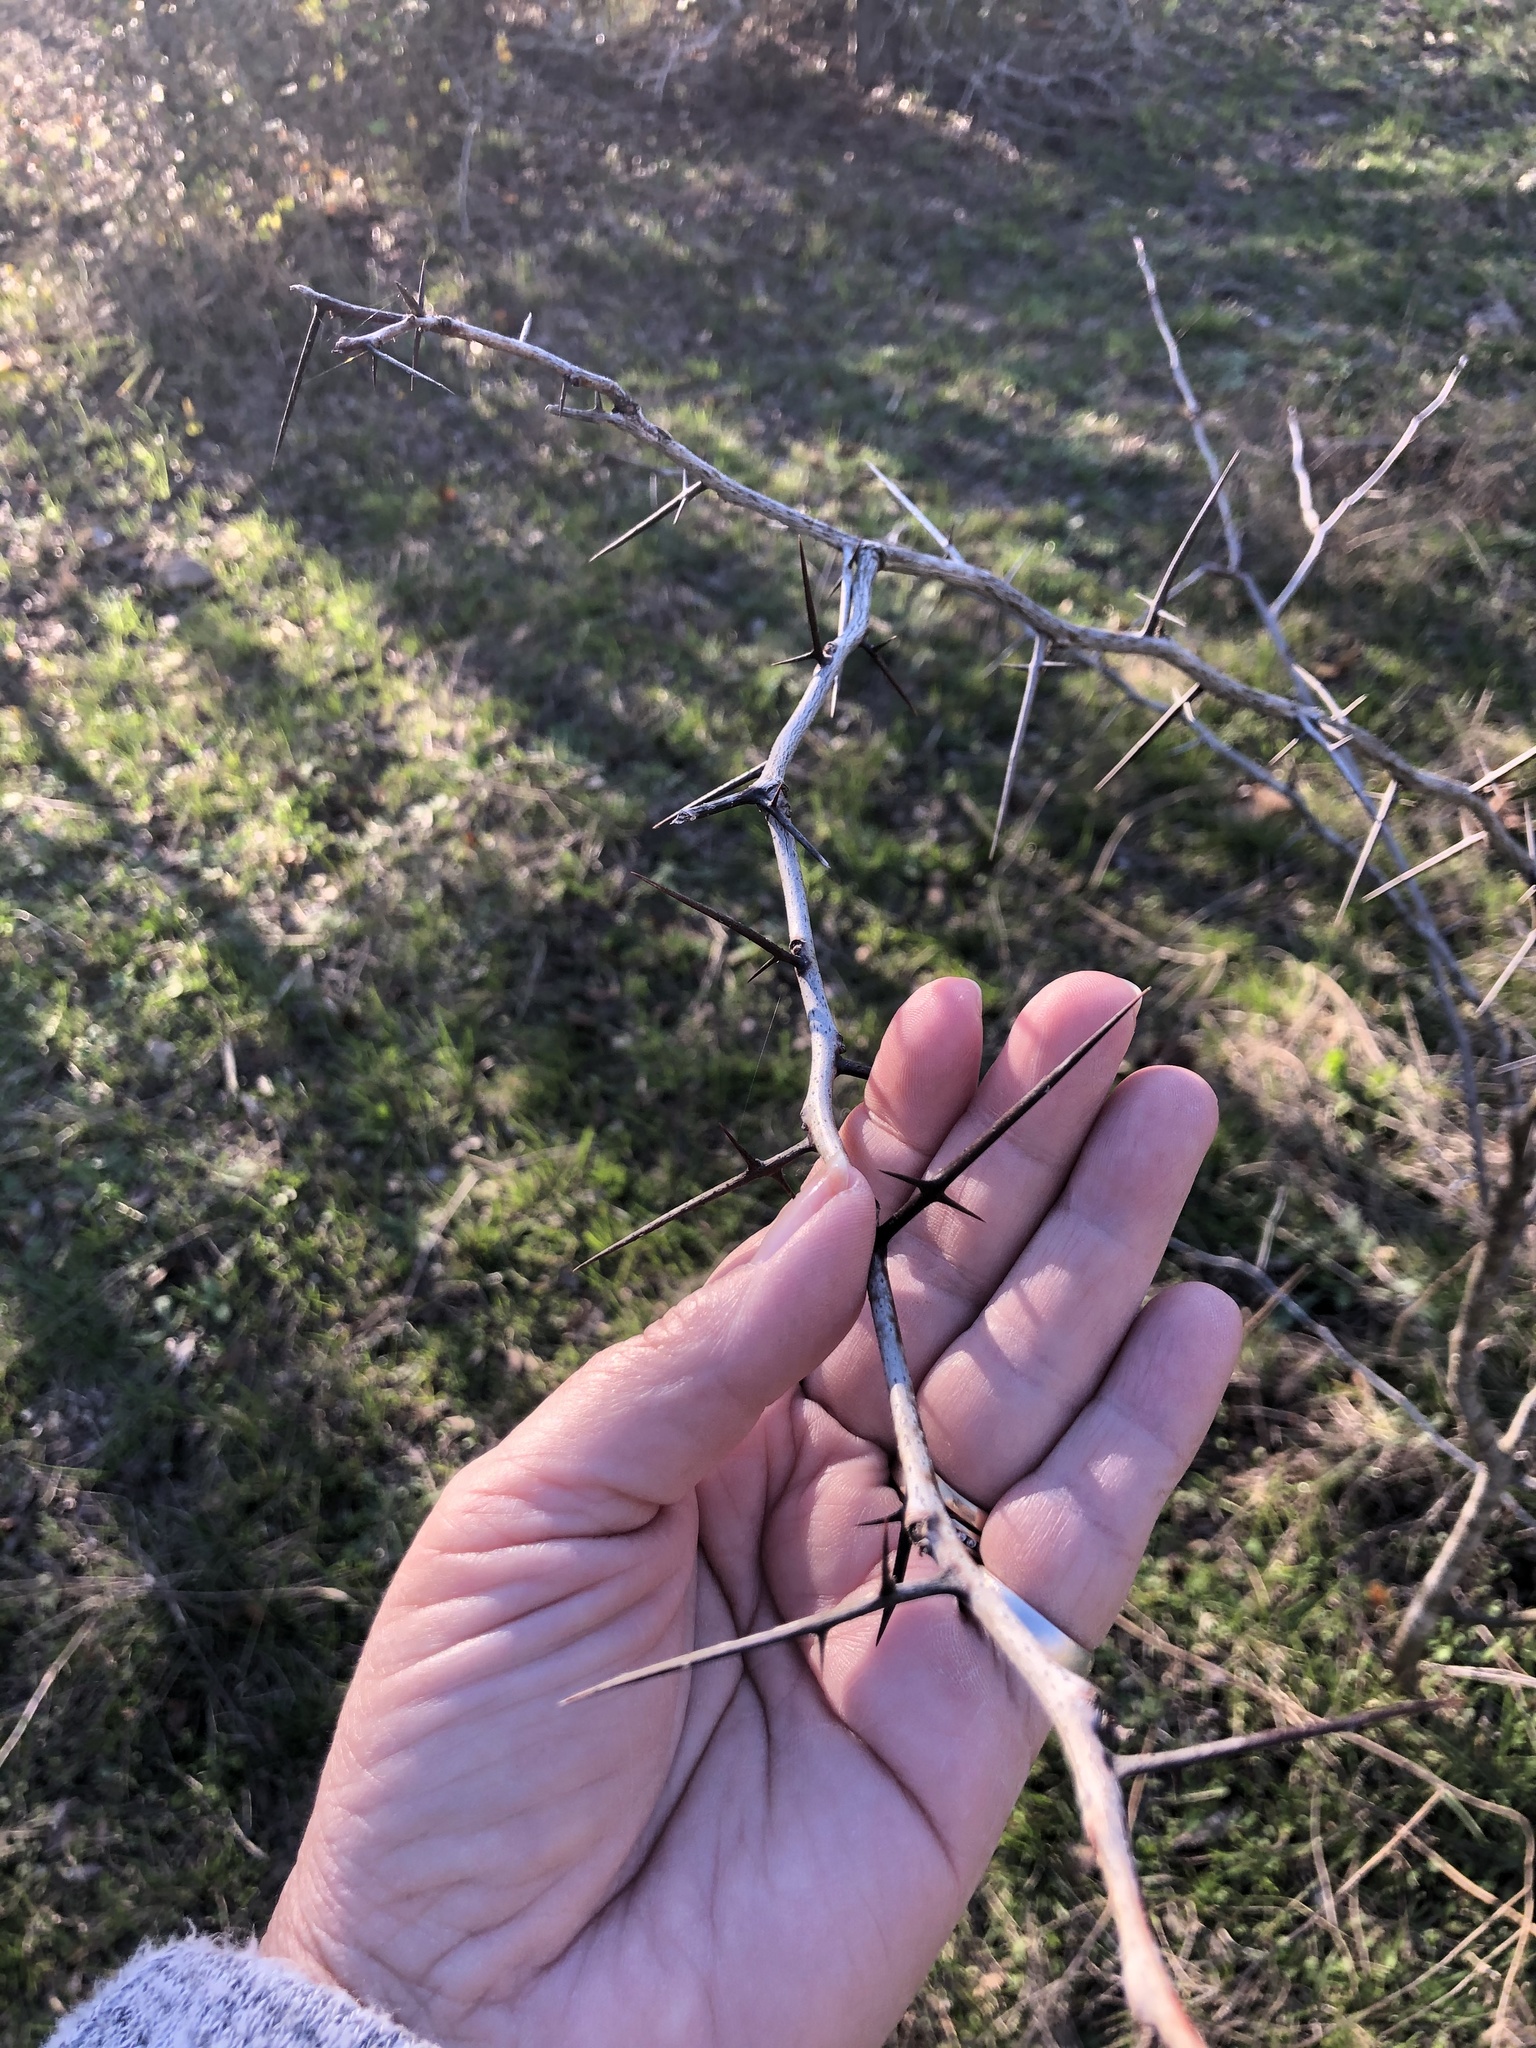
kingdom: Plantae
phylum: Tracheophyta
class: Magnoliopsida
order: Fabales
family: Fabaceae
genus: Prosopis
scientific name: Prosopis glandulosa
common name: Honey mesquite
